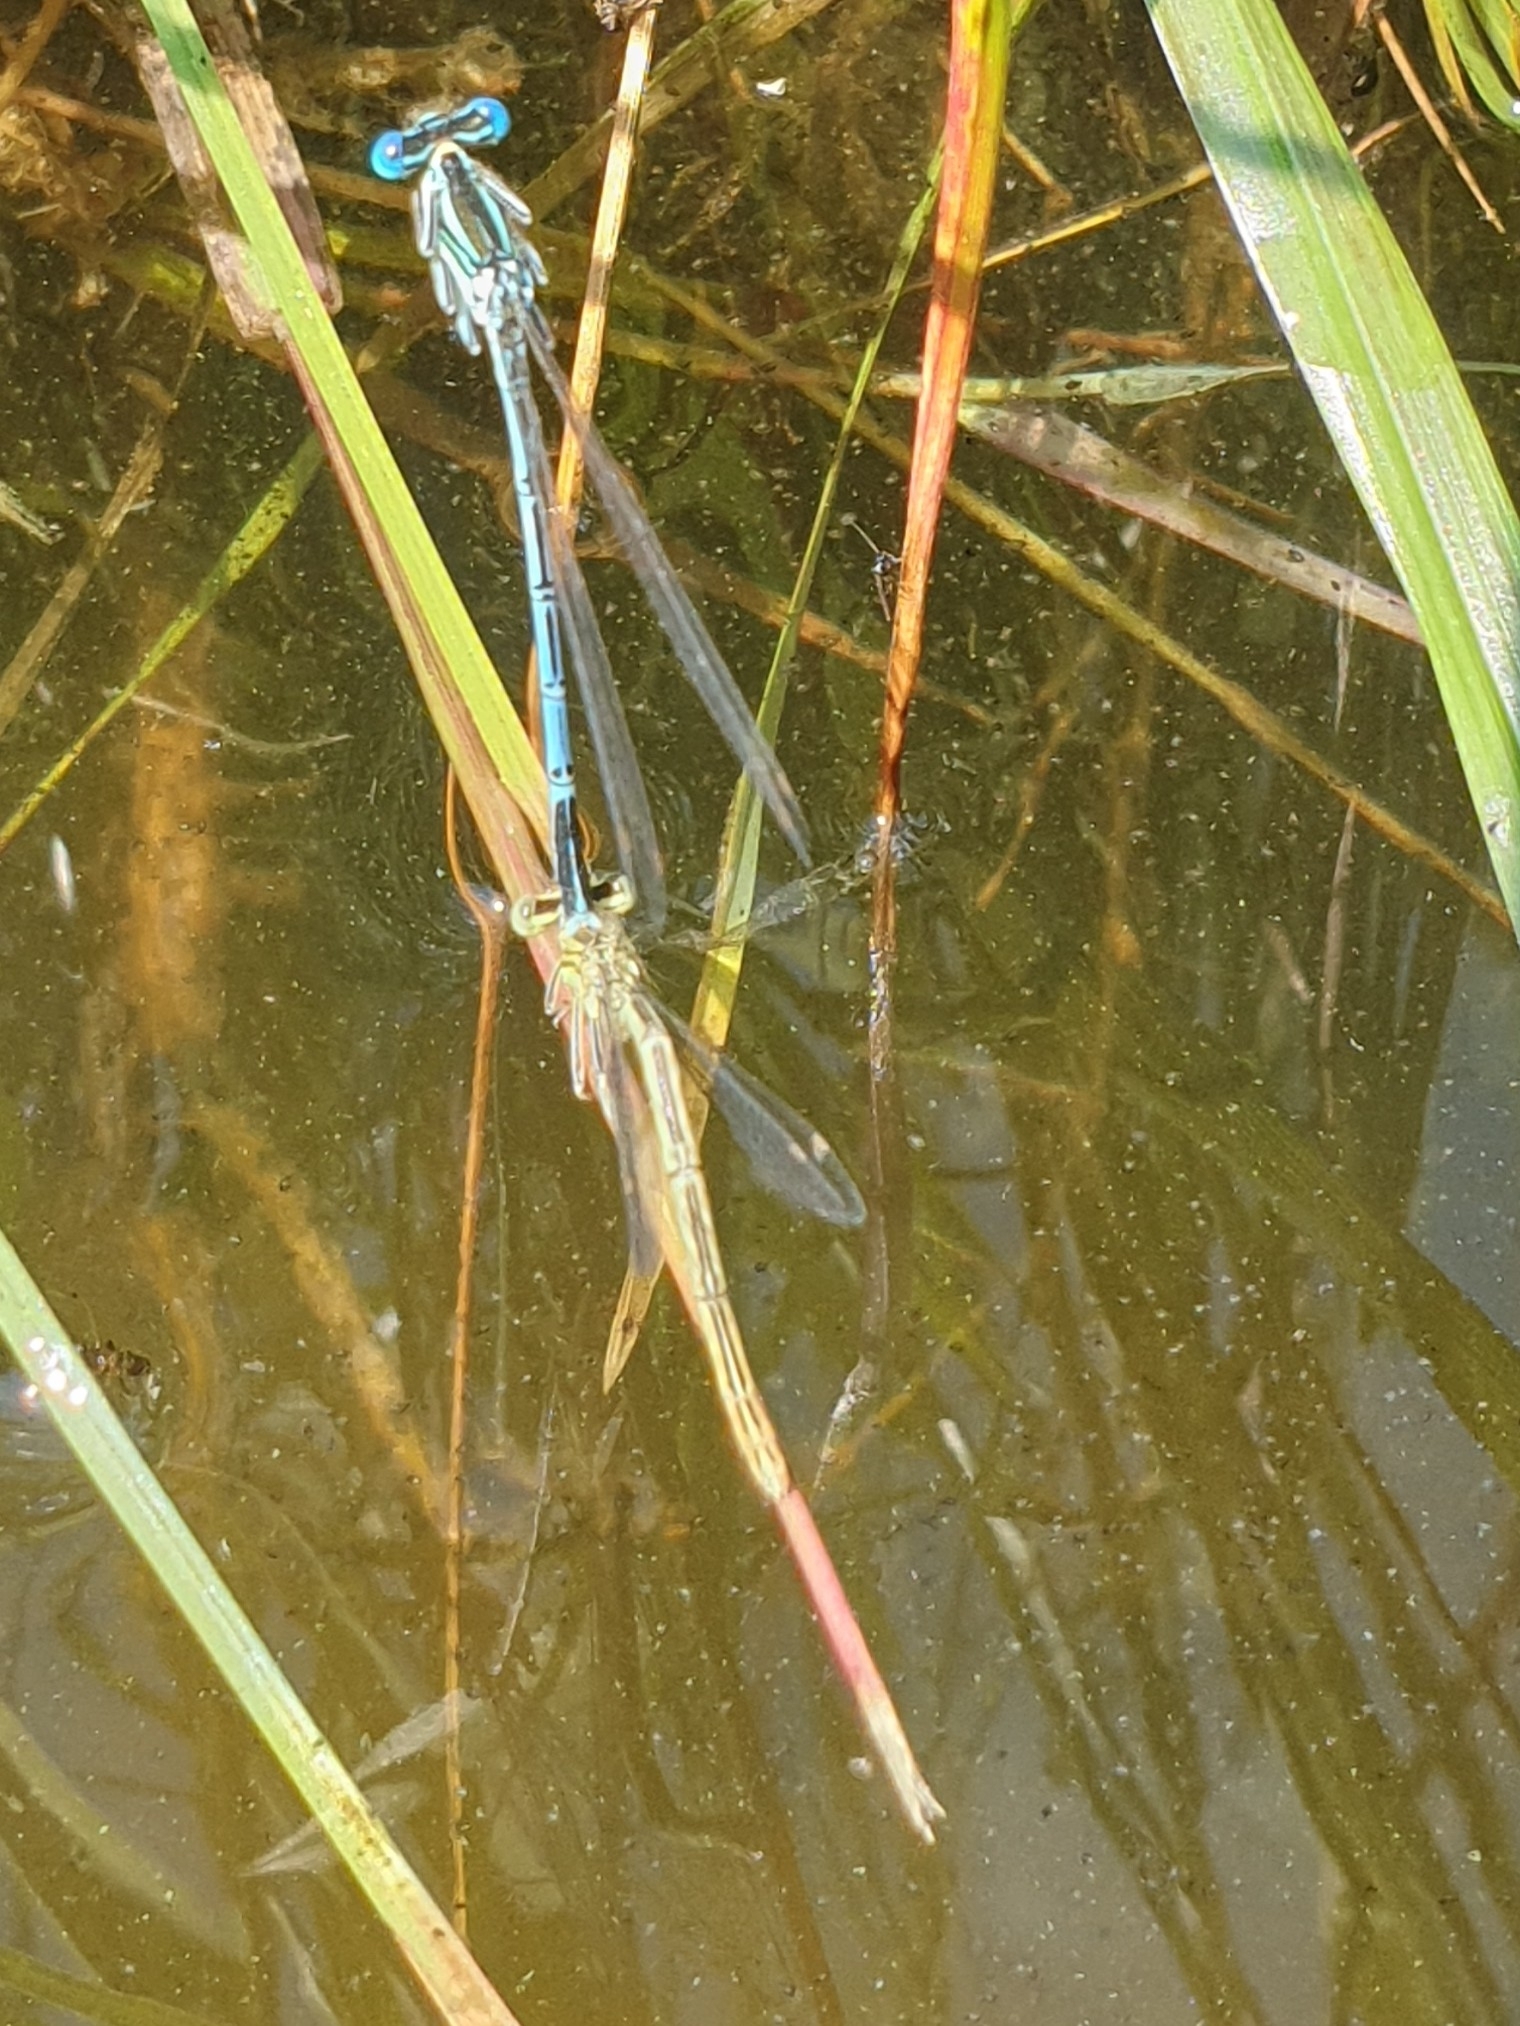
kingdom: Animalia
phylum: Arthropoda
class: Insecta
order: Odonata
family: Platycnemididae
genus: Platycnemis
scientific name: Platycnemis pennipes
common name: White-legged damselfly
